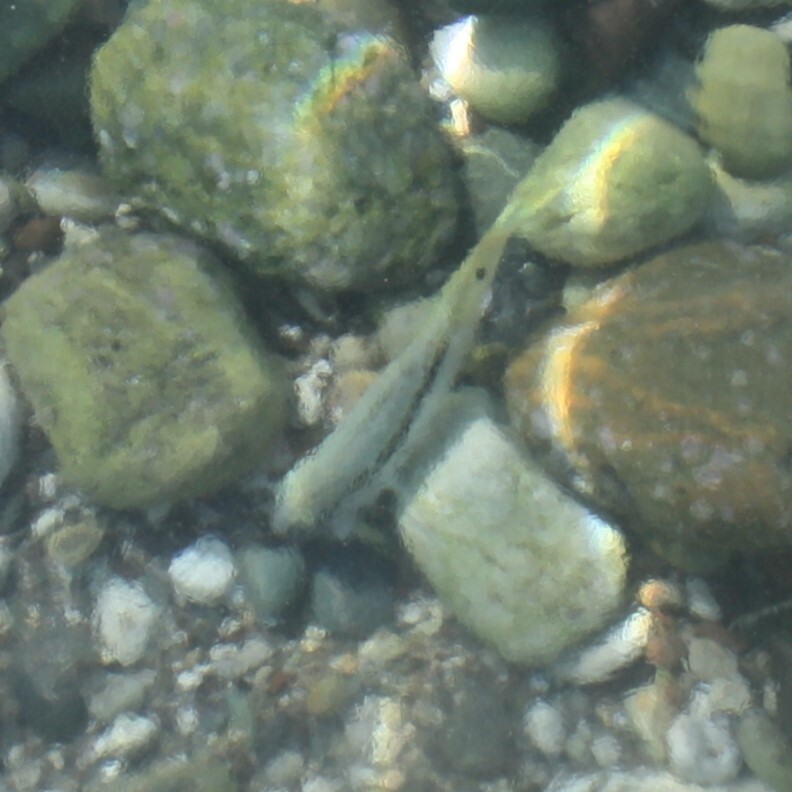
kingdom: Animalia
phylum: Chordata
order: Perciformes
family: Mullidae
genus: Parupeneus
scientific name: Parupeneus forsskali
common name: Red sea goatfish
